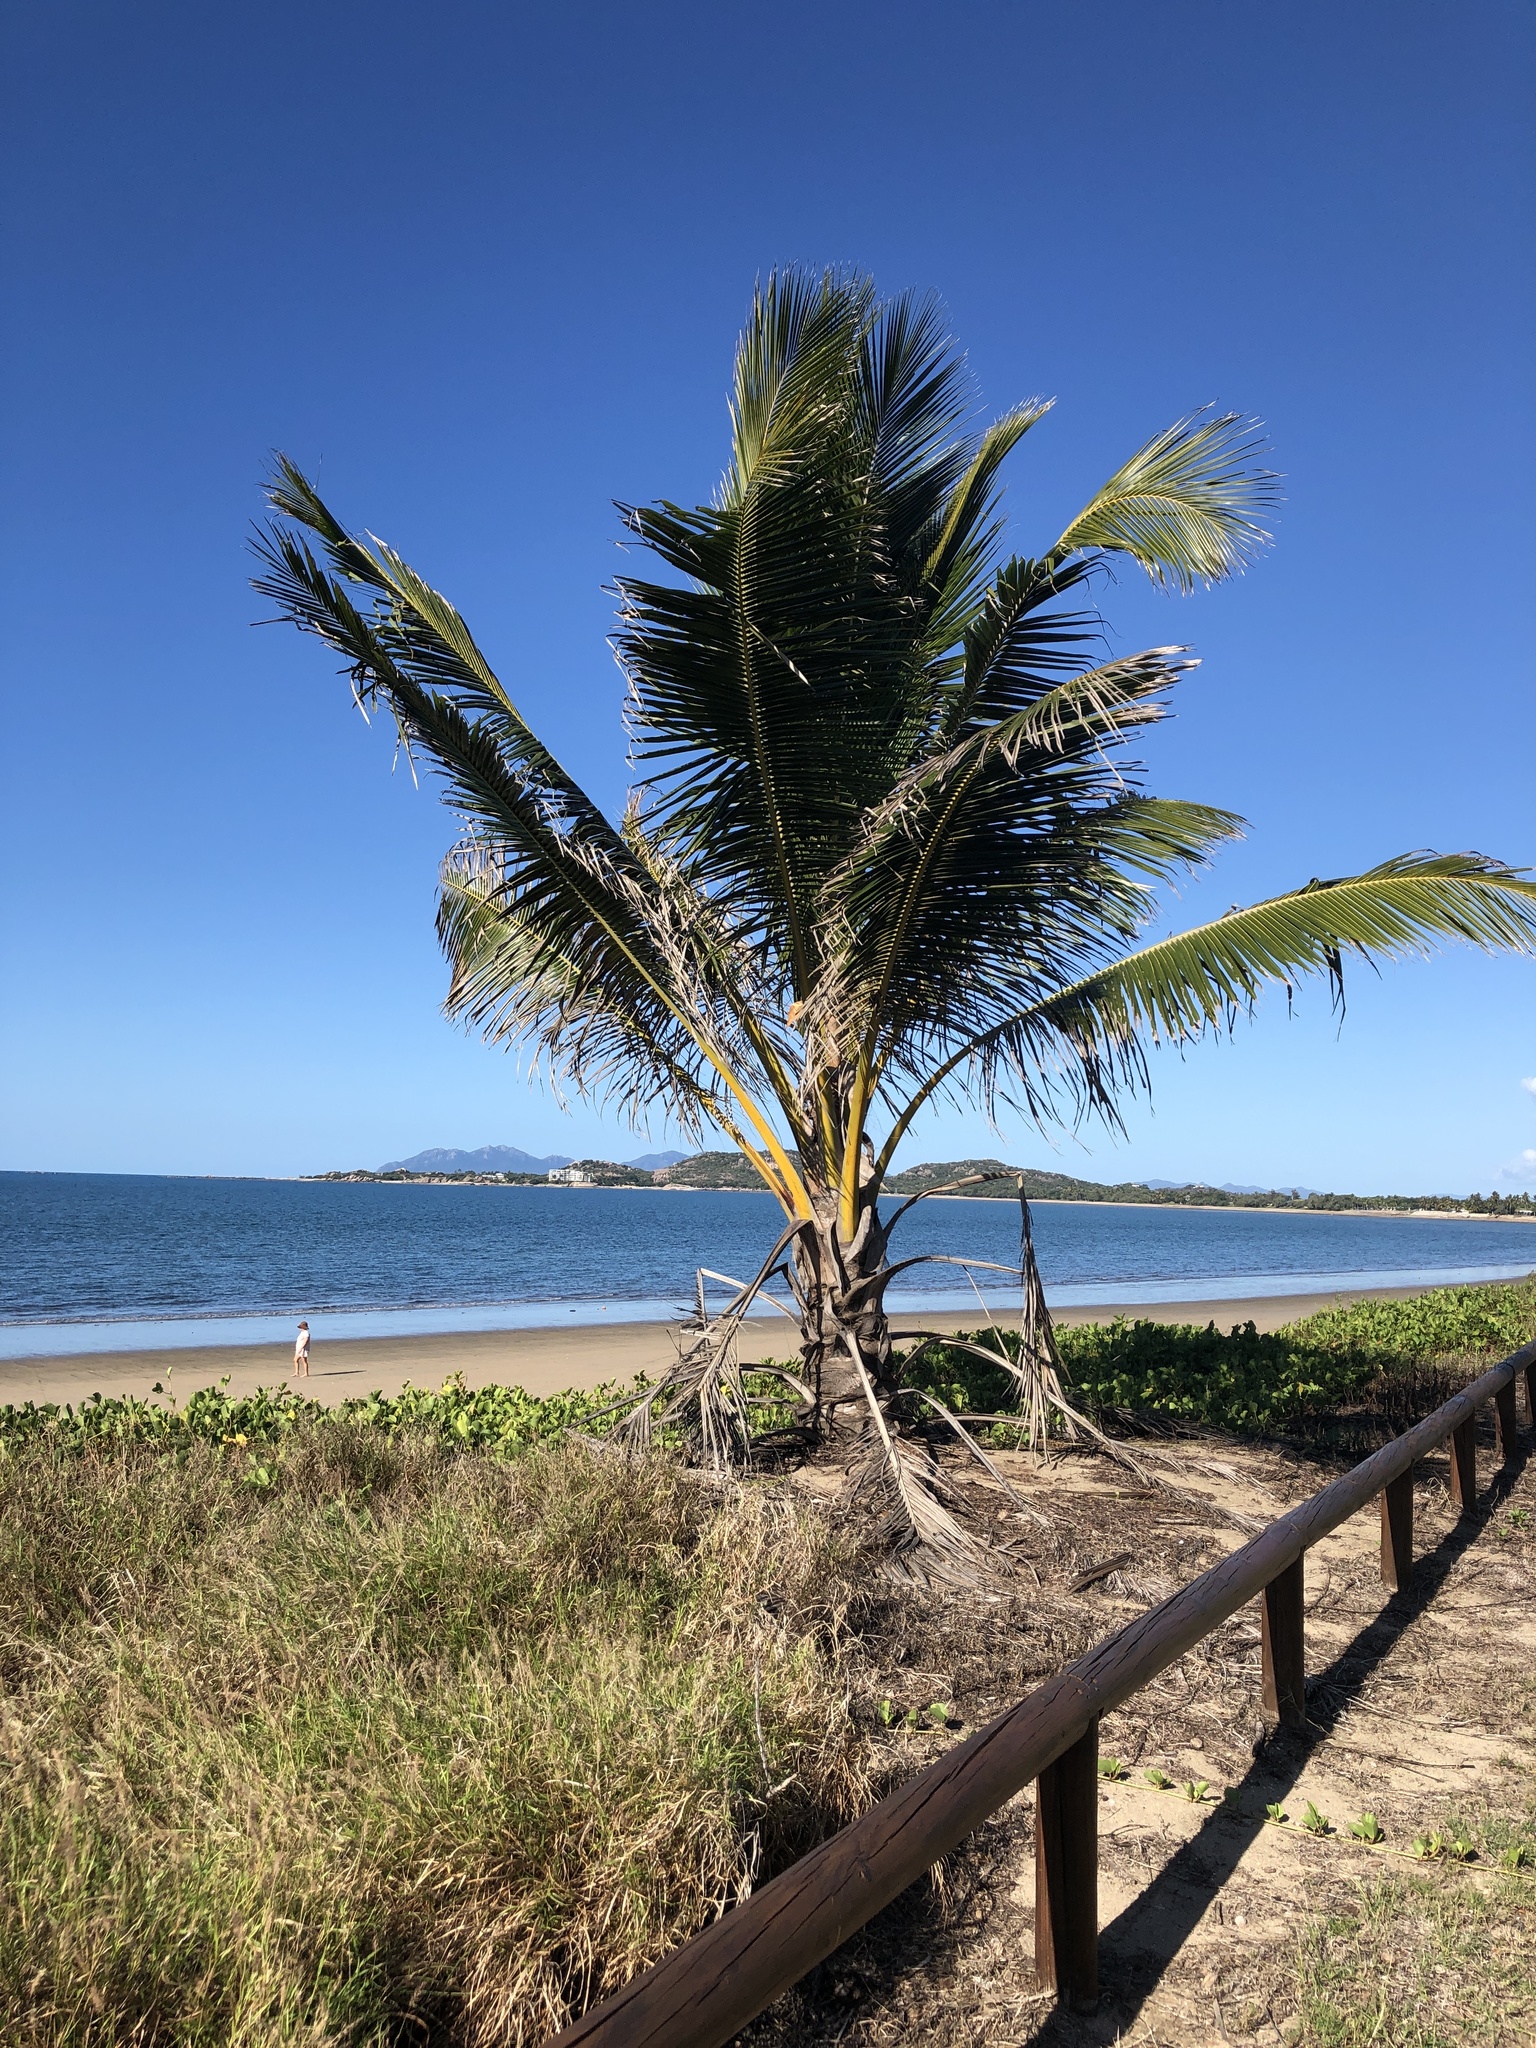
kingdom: Plantae
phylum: Tracheophyta
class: Liliopsida
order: Arecales
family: Arecaceae
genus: Cocos
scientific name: Cocos nucifera
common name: Coconut palm
